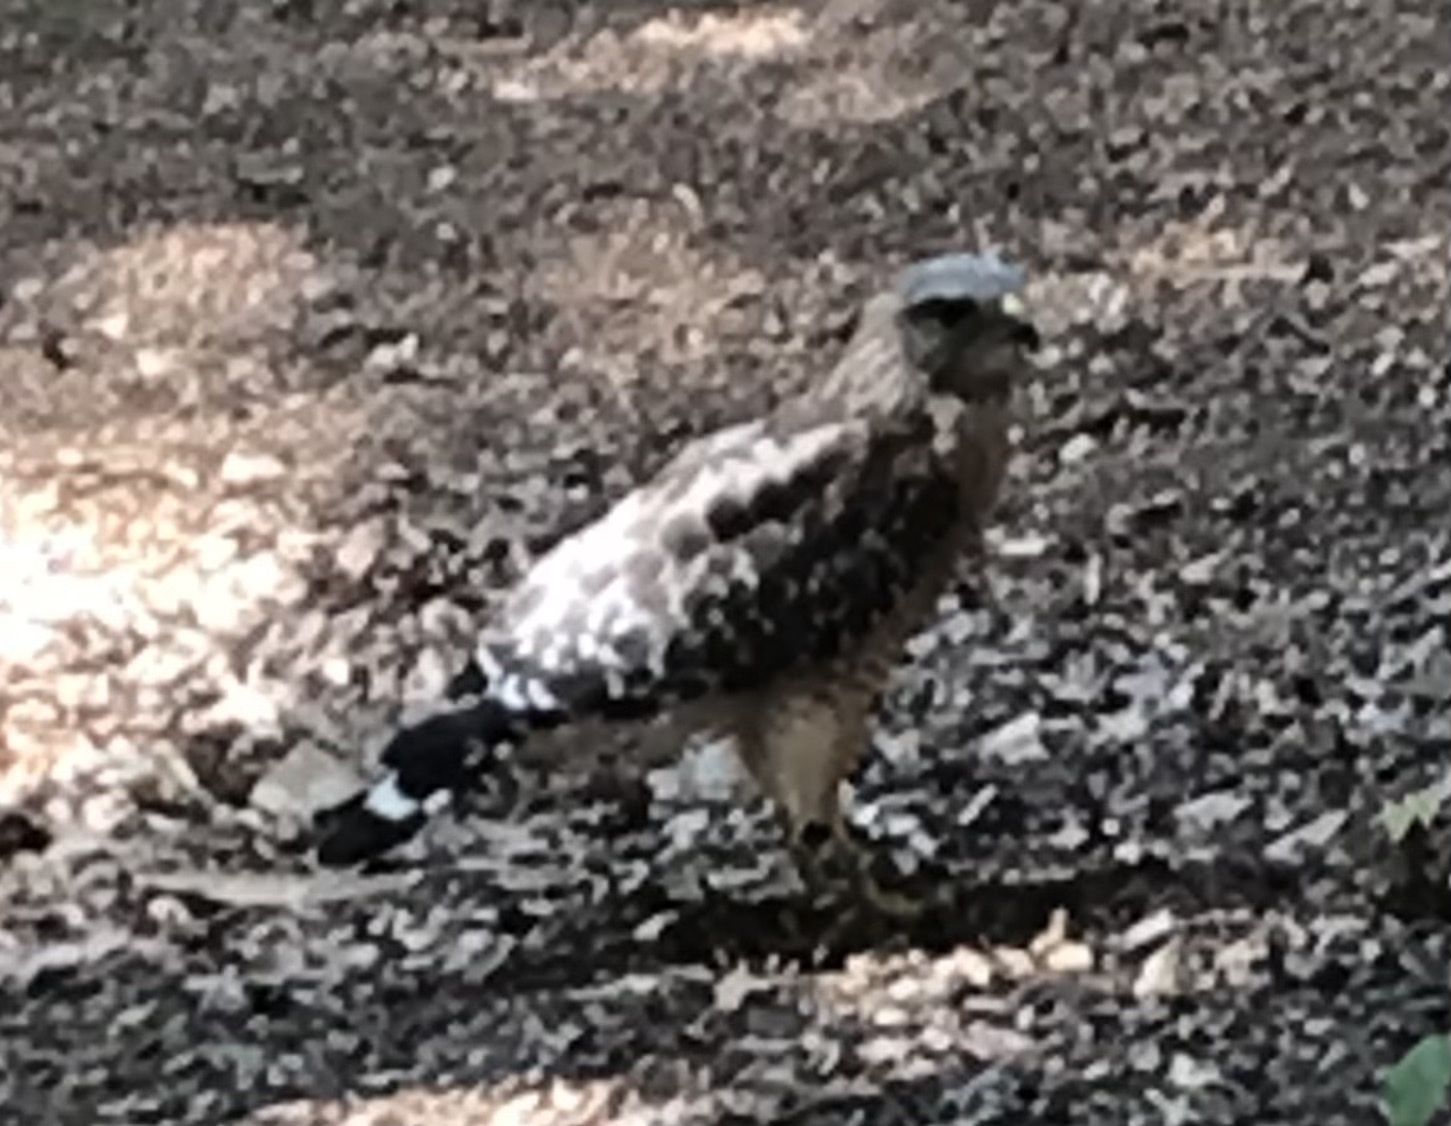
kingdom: Animalia
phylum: Chordata
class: Aves
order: Accipitriformes
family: Accipitridae
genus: Buteo
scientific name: Buteo lineatus
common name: Red-shouldered hawk
